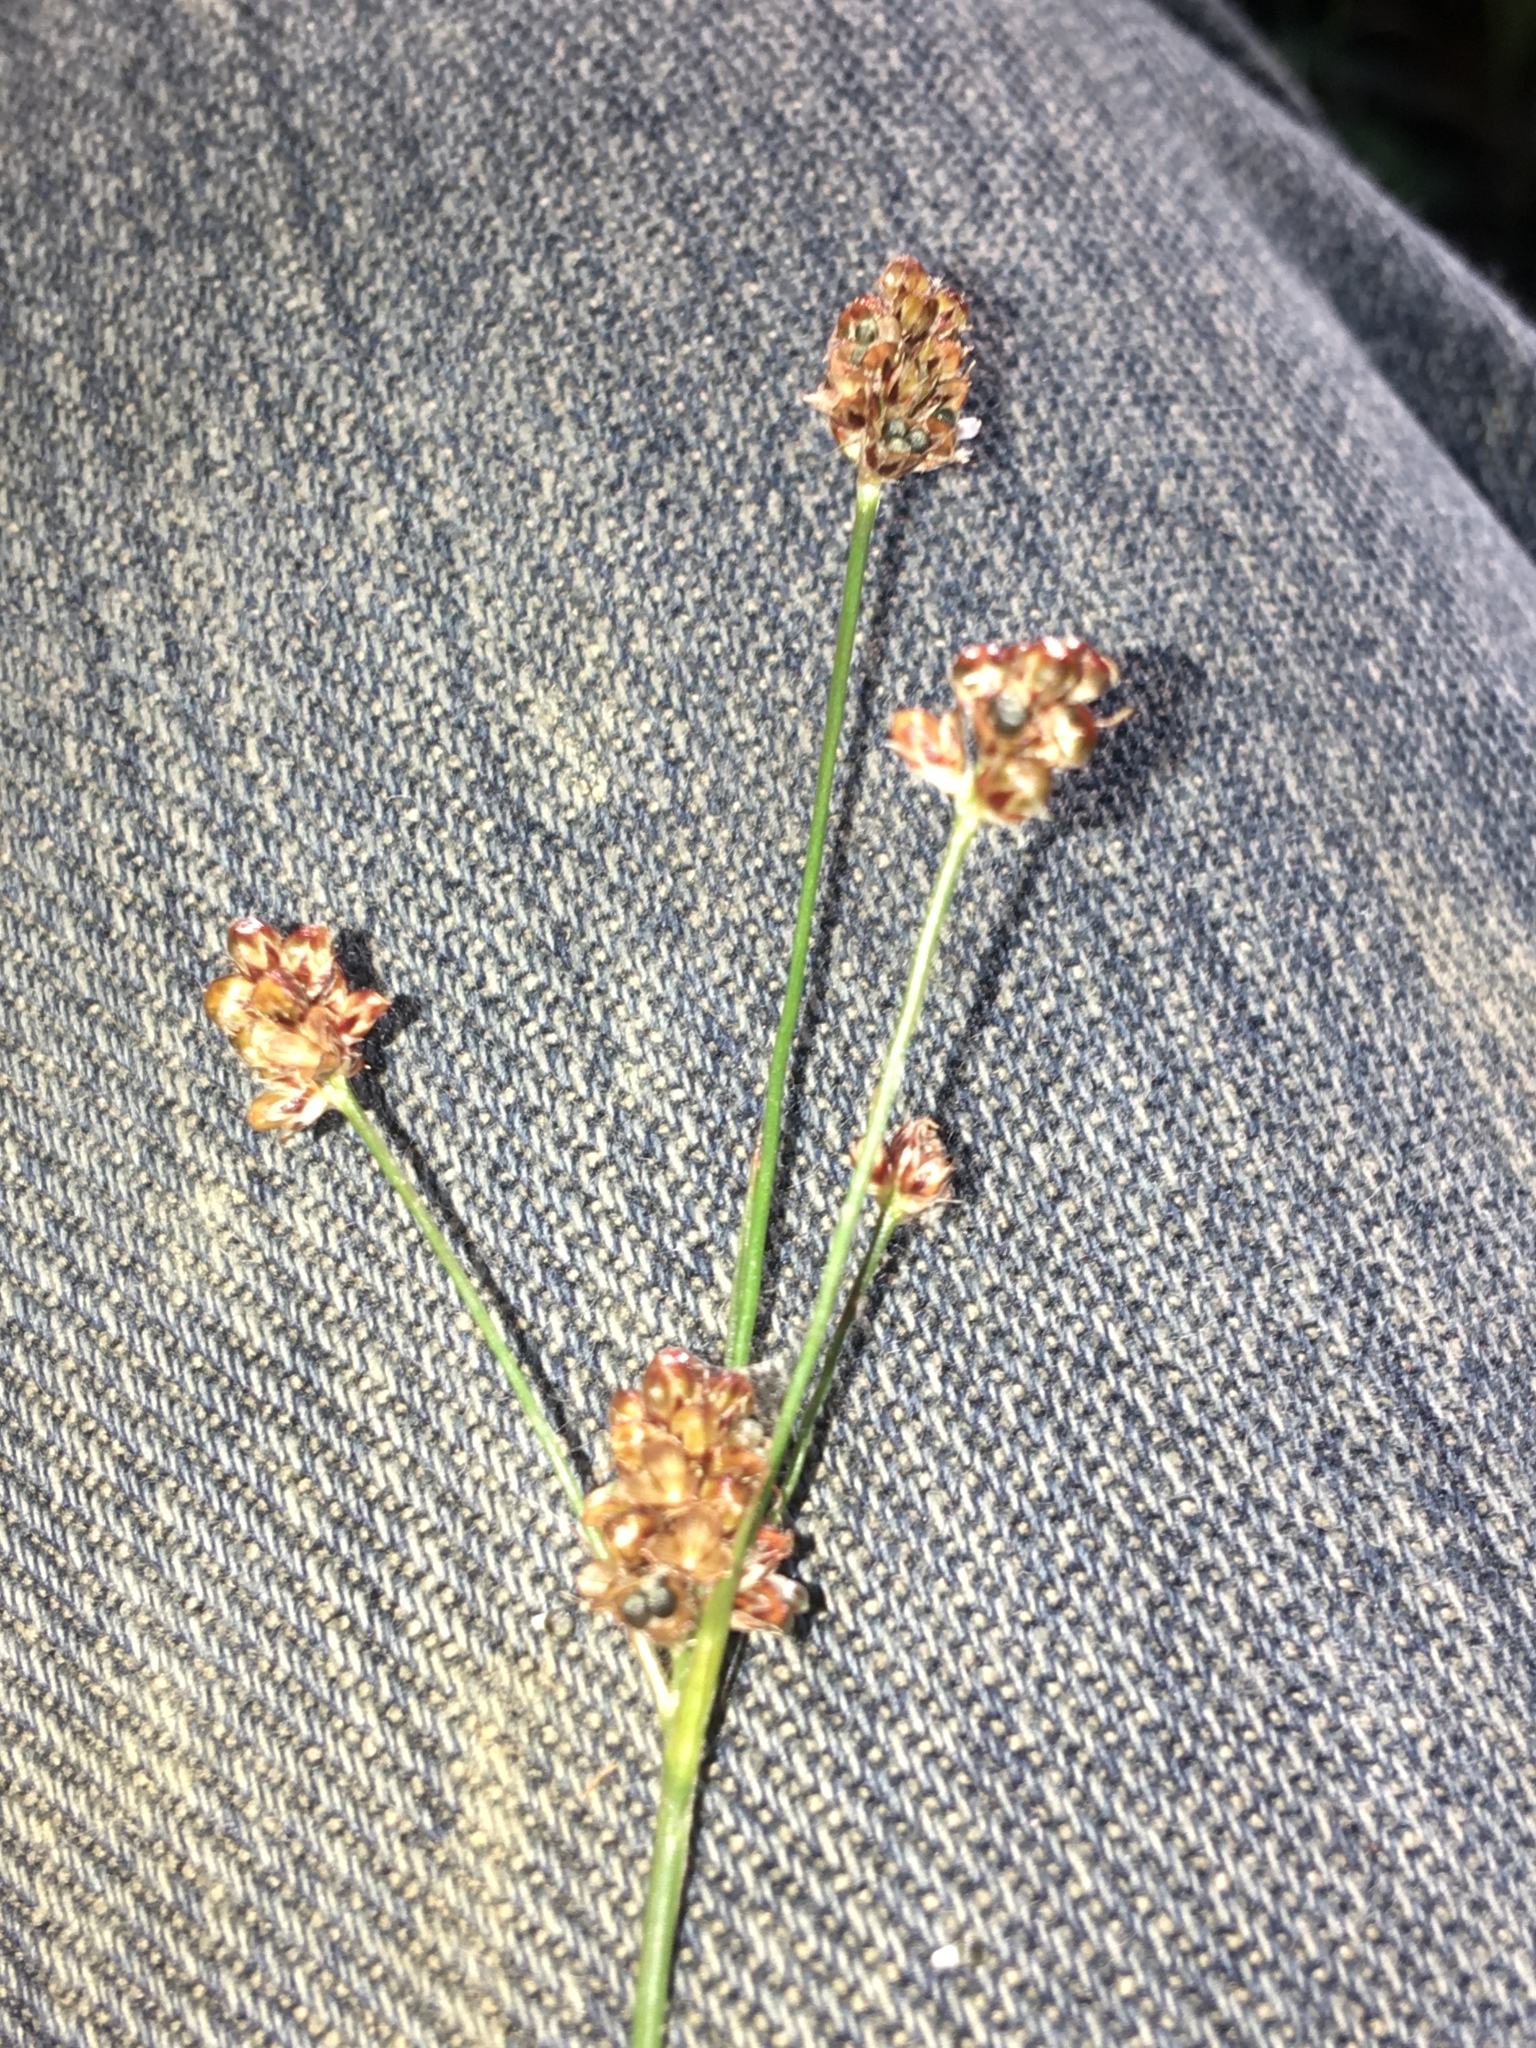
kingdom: Plantae
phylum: Tracheophyta
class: Liliopsida
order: Poales
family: Juncaceae
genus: Luzula
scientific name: Luzula bulbosa
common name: Bulbous woodrush
